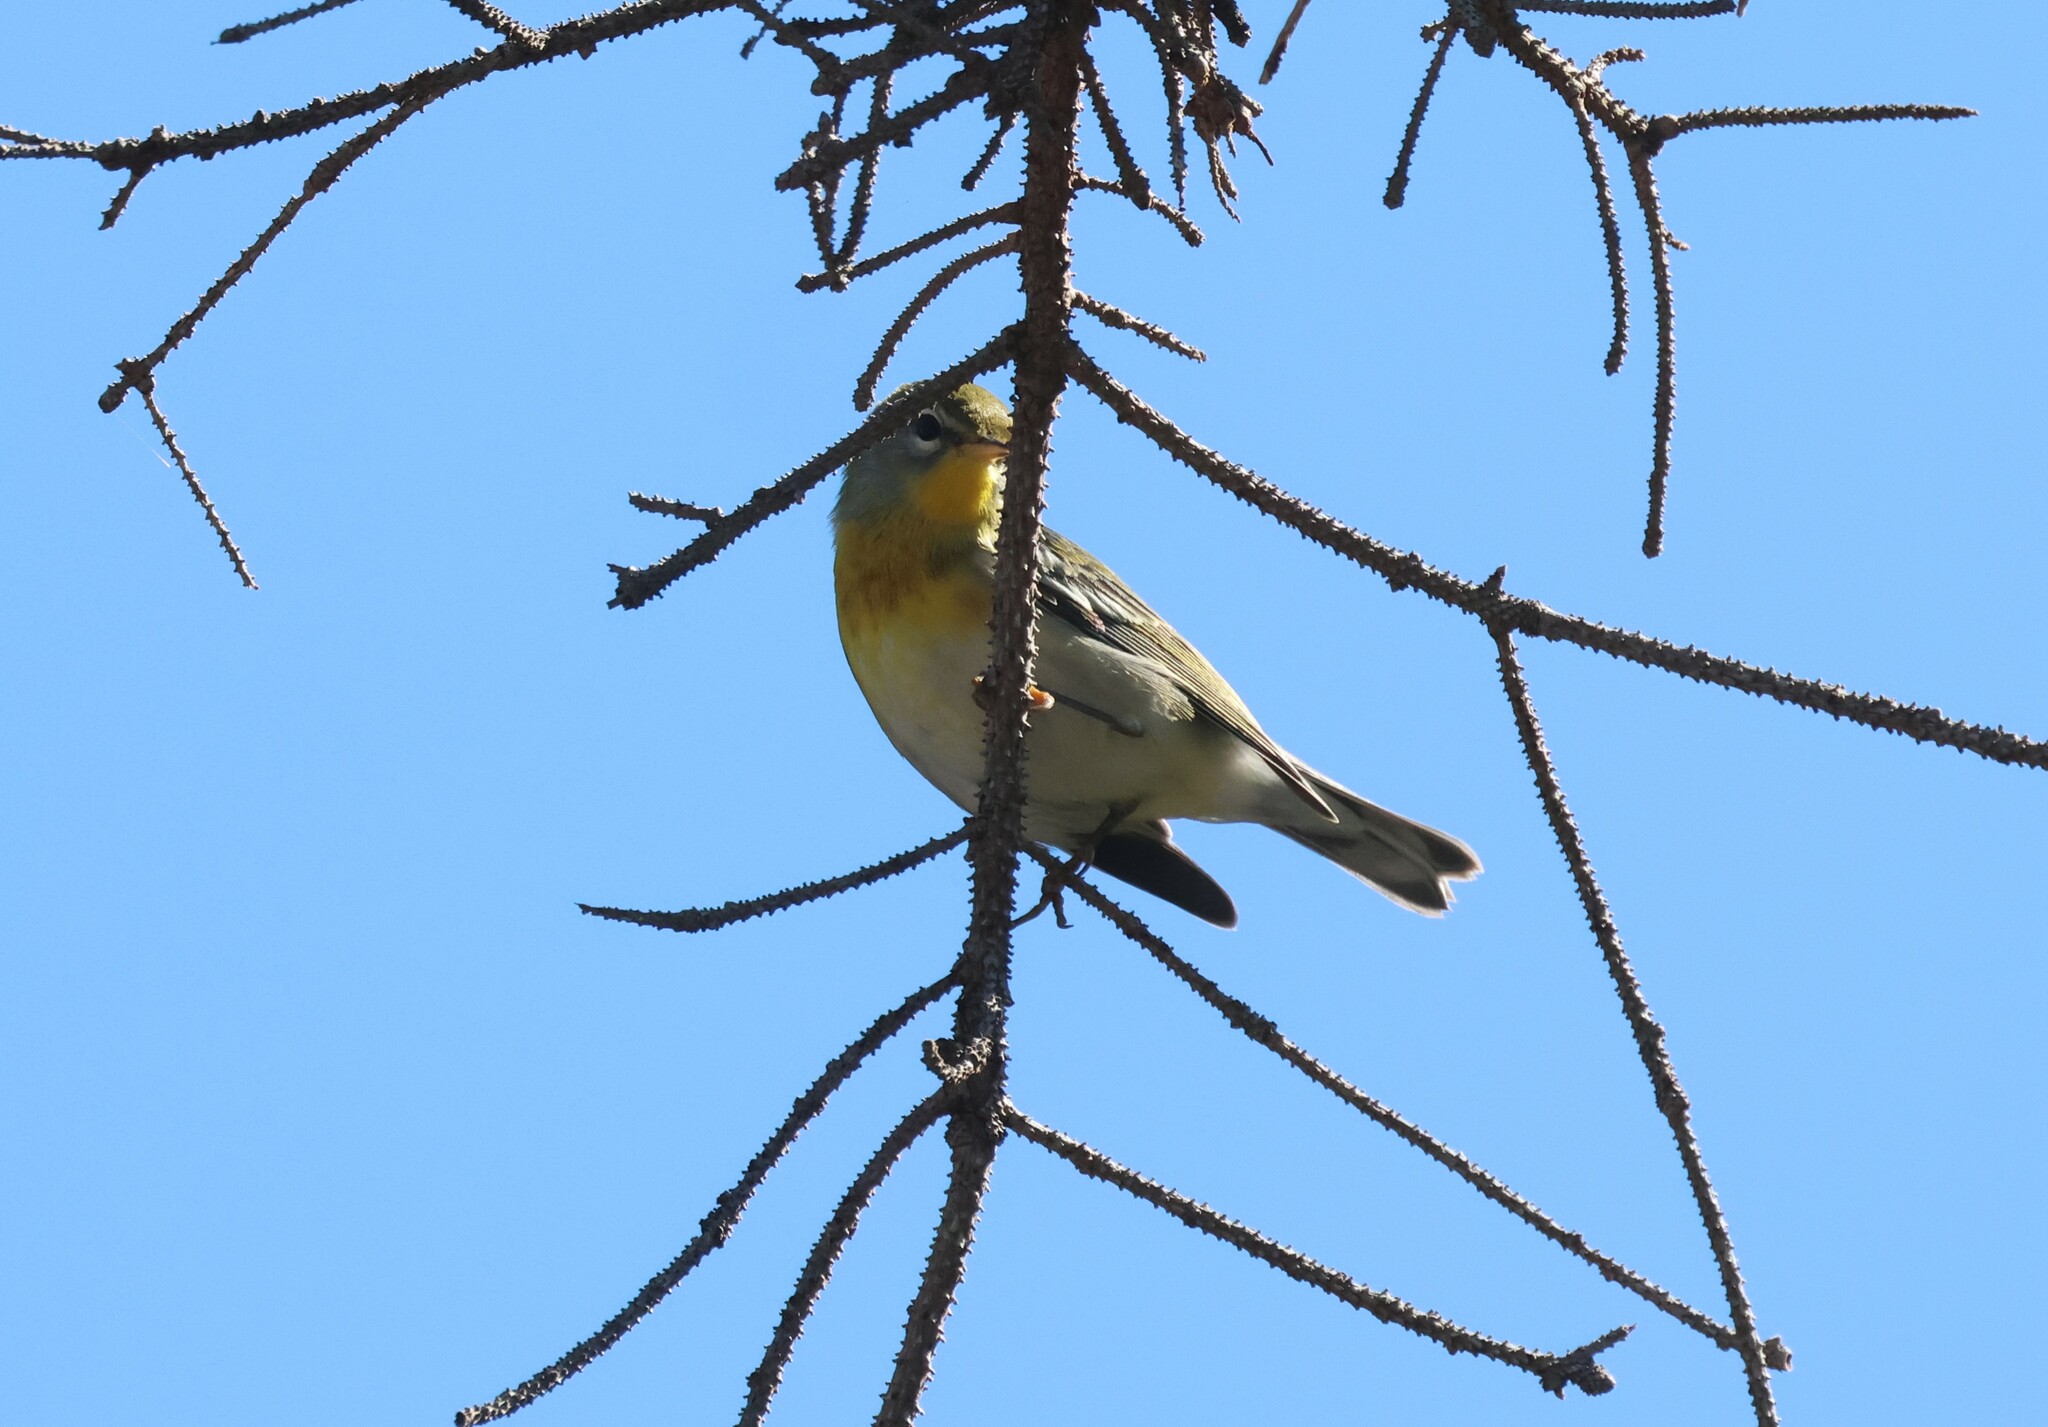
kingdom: Animalia
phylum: Chordata
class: Aves
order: Passeriformes
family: Parulidae
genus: Setophaga
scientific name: Setophaga americana
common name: Northern parula
